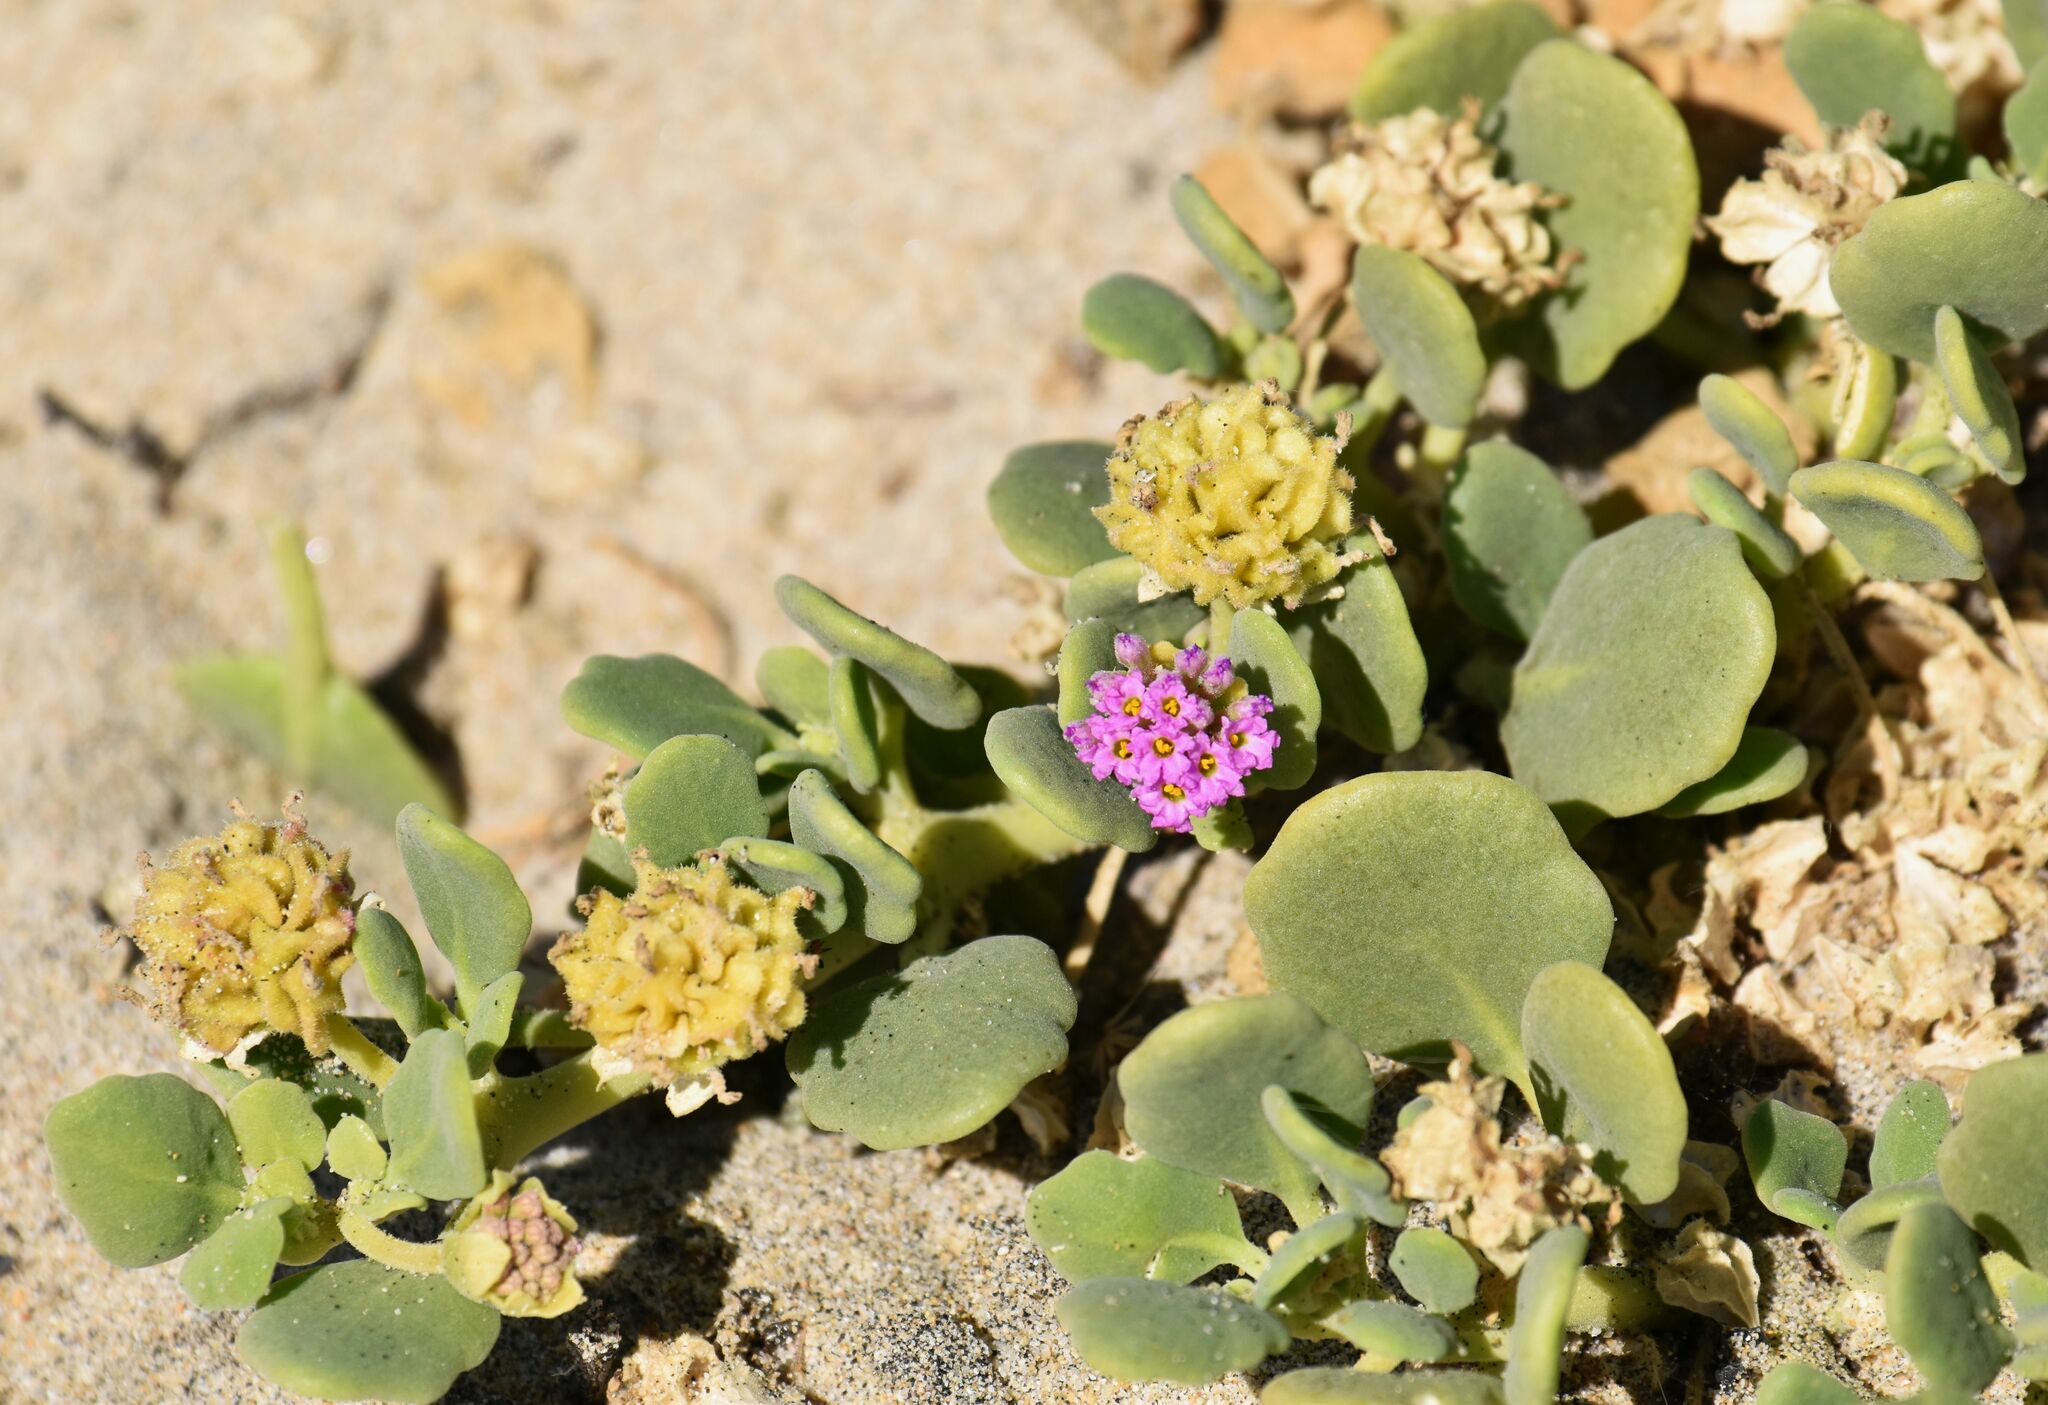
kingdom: Plantae
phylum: Tracheophyta
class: Magnoliopsida
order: Caryophyllales
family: Nyctaginaceae
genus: Abronia
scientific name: Abronia maritima
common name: Red sand-verbena
